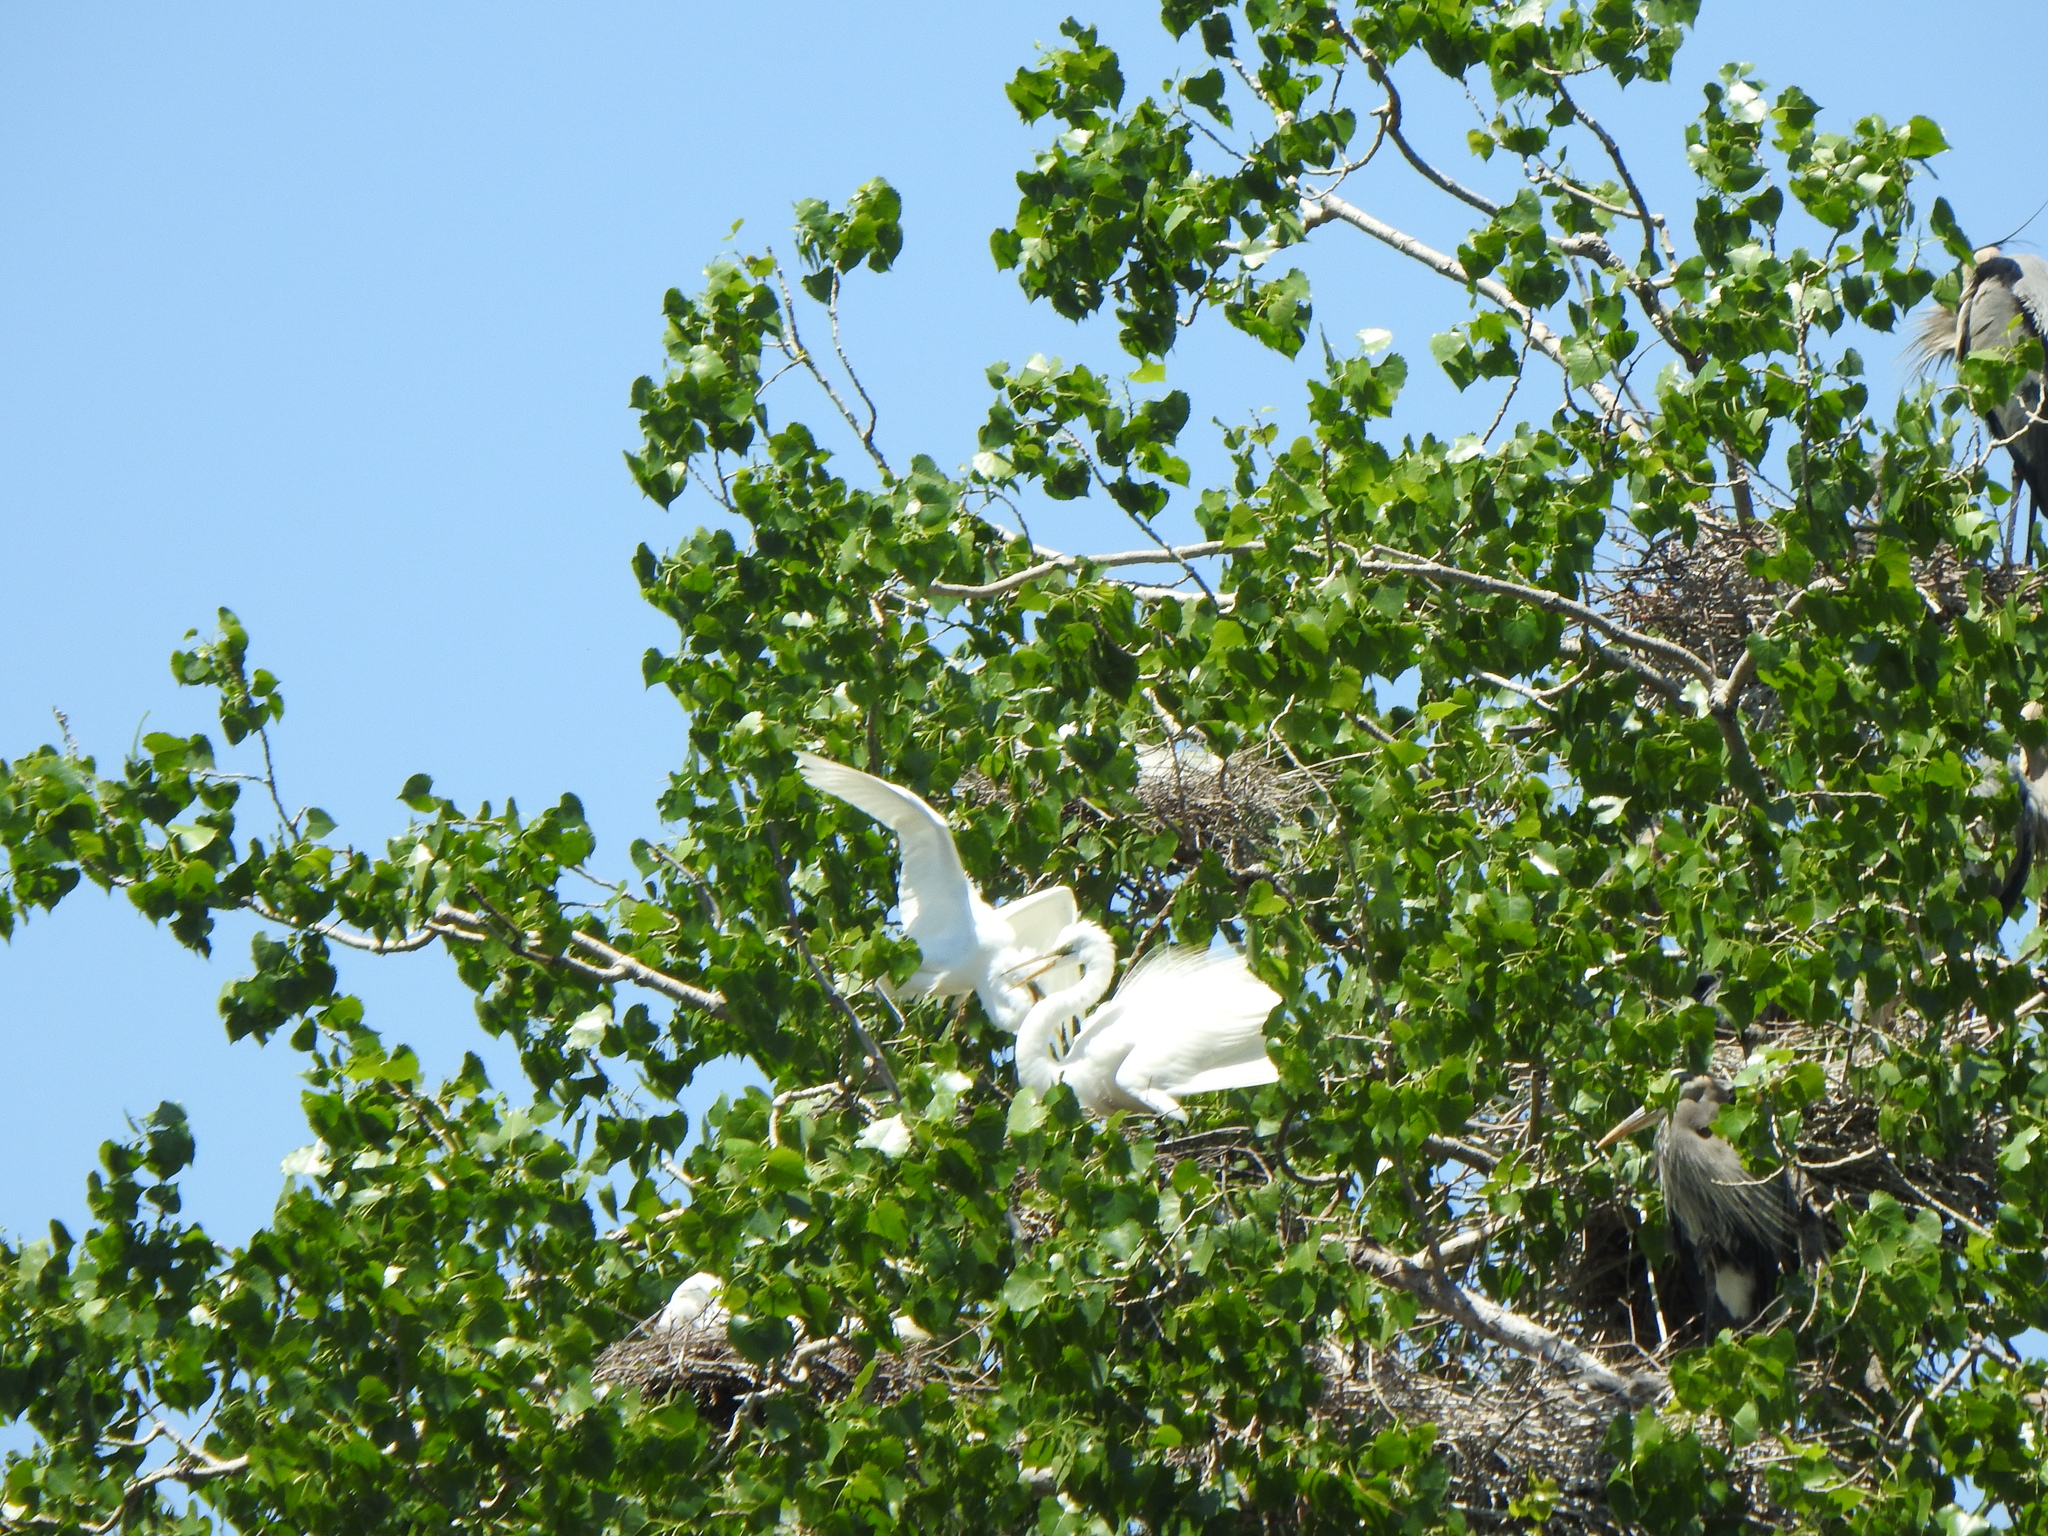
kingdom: Animalia
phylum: Chordata
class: Aves
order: Pelecaniformes
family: Ardeidae
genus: Ardea
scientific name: Ardea alba
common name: Great egret
